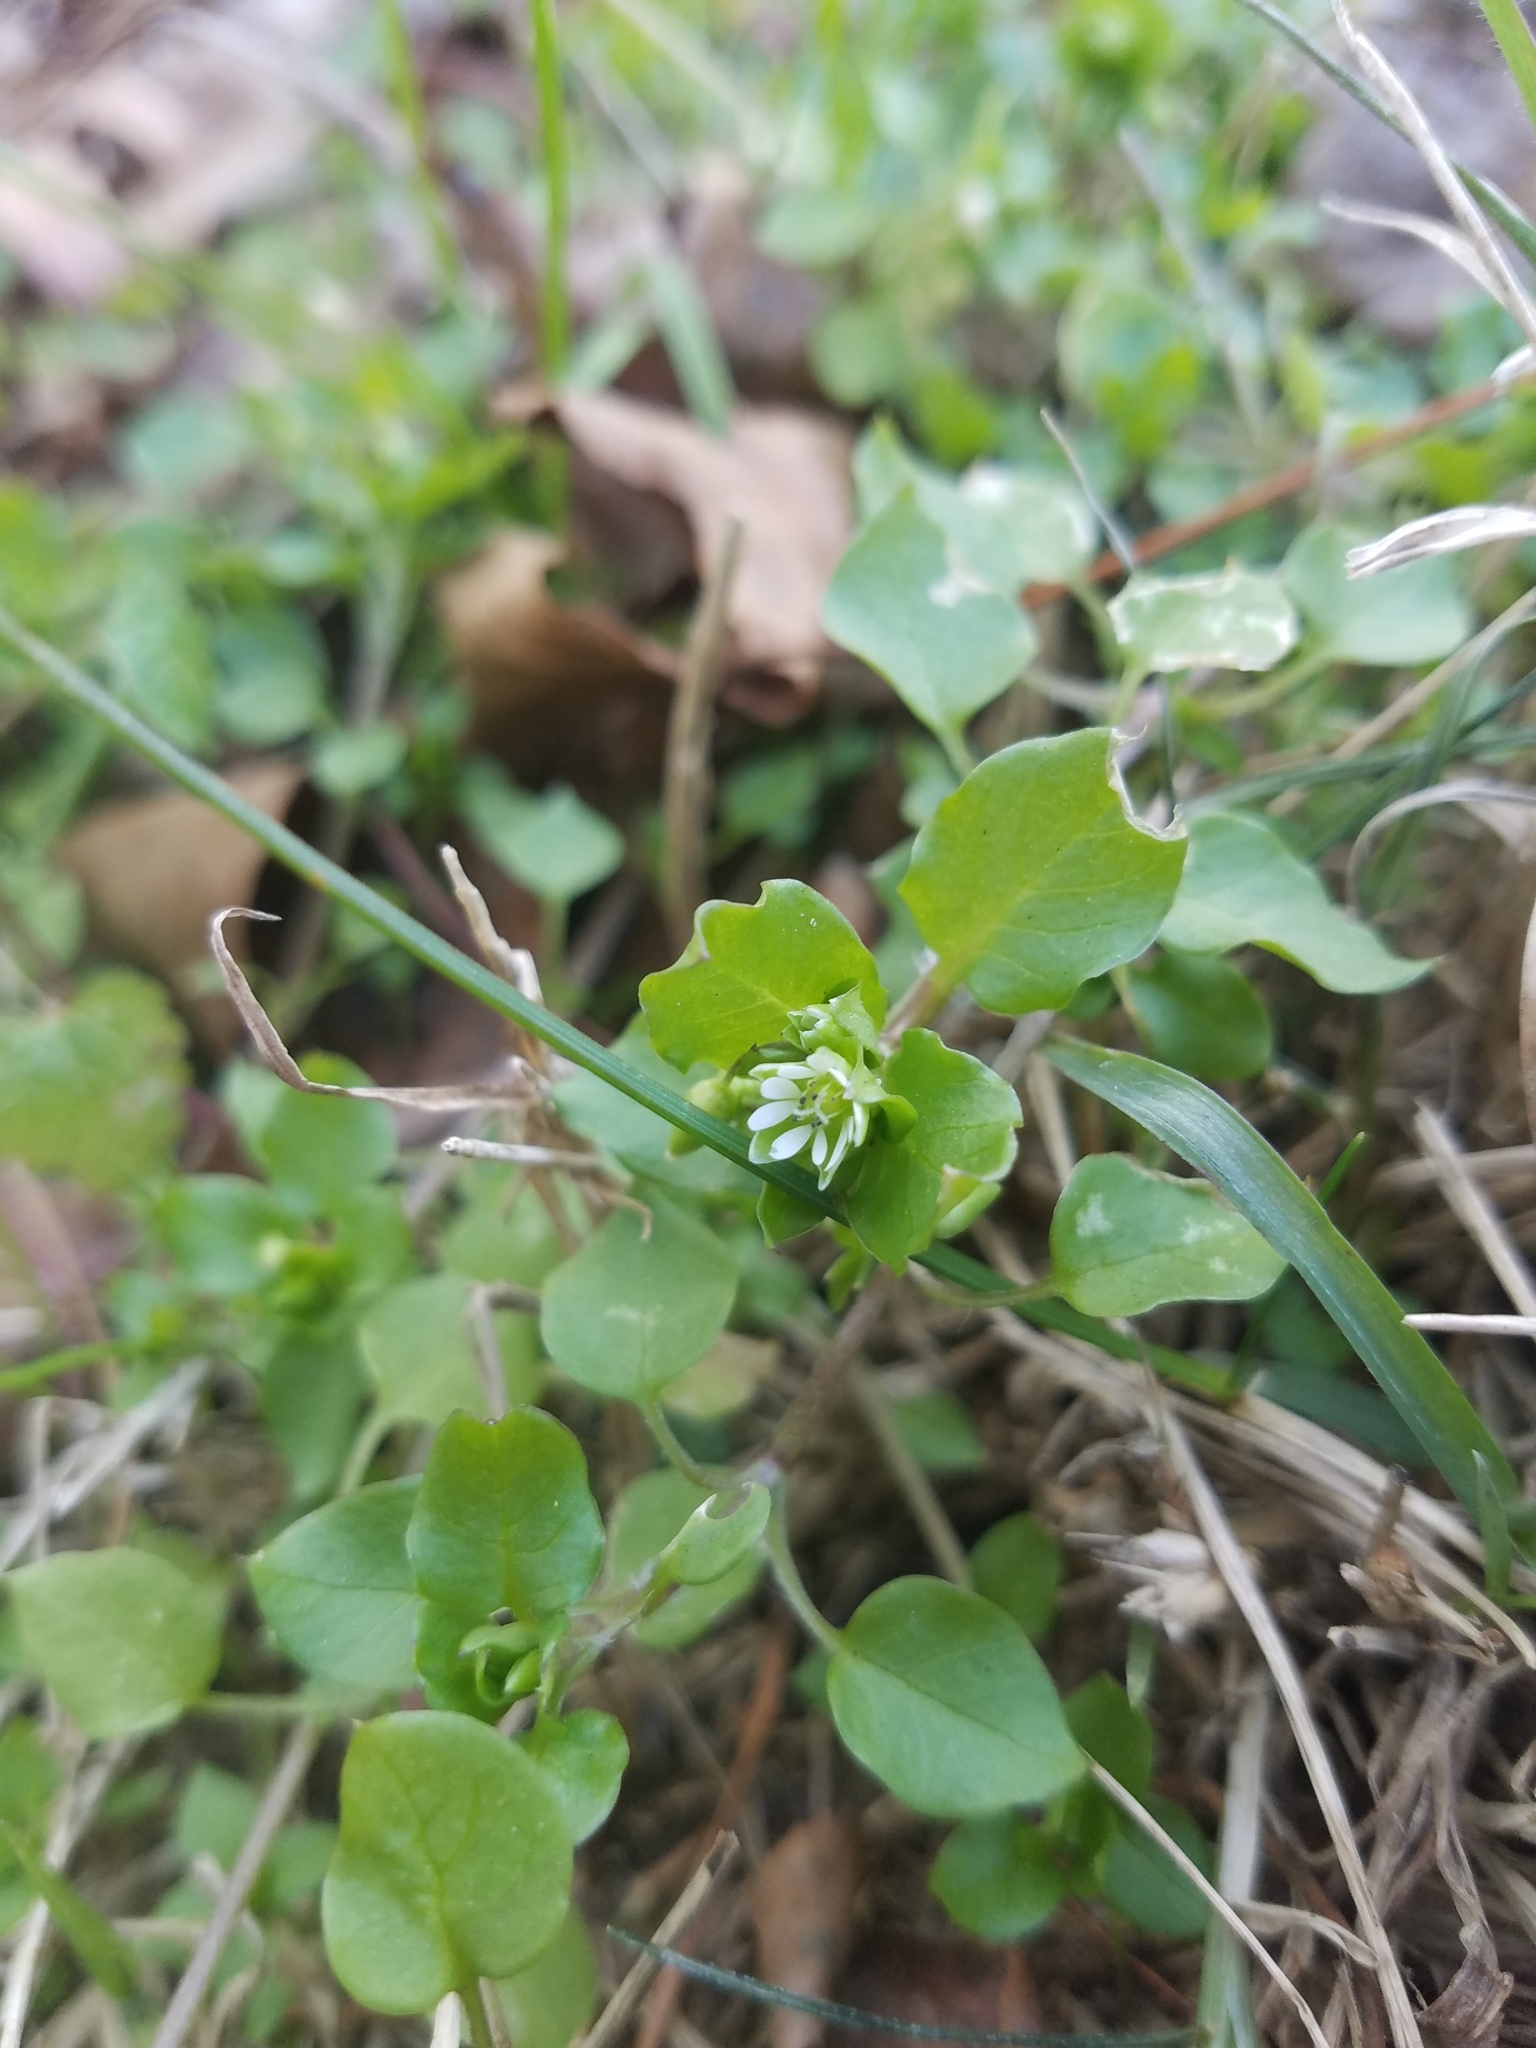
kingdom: Plantae
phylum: Tracheophyta
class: Magnoliopsida
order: Caryophyllales
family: Caryophyllaceae
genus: Stellaria
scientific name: Stellaria media
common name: Common chickweed
